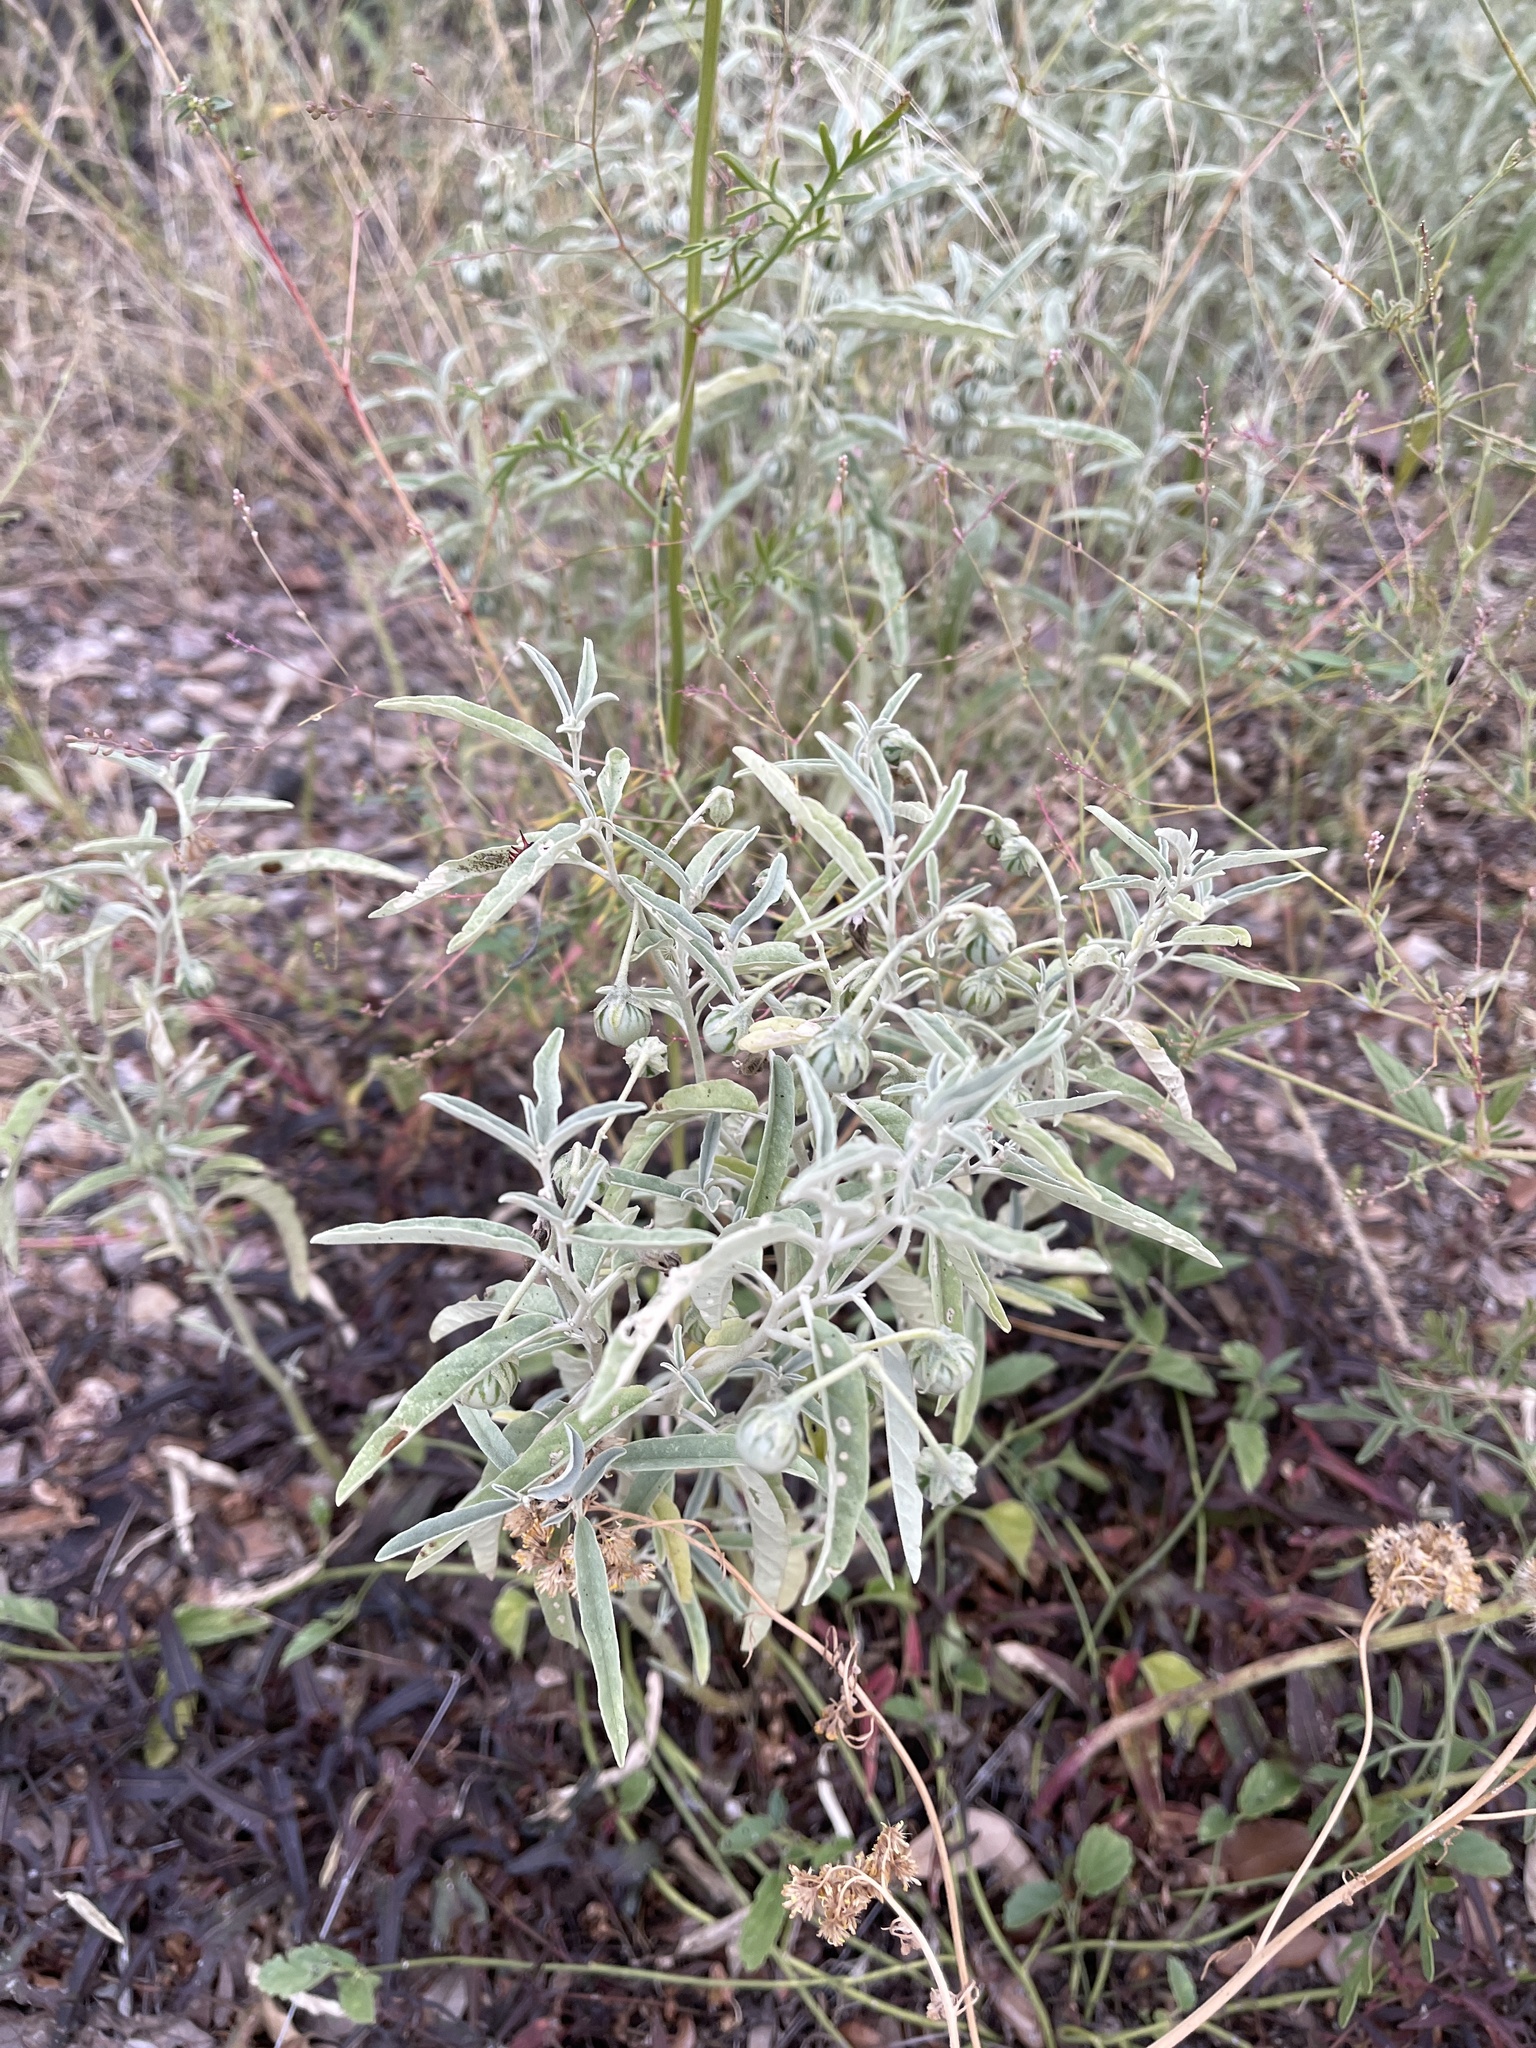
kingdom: Plantae
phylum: Tracheophyta
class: Magnoliopsida
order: Solanales
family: Solanaceae
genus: Solanum
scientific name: Solanum elaeagnifolium
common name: Silverleaf nightshade
